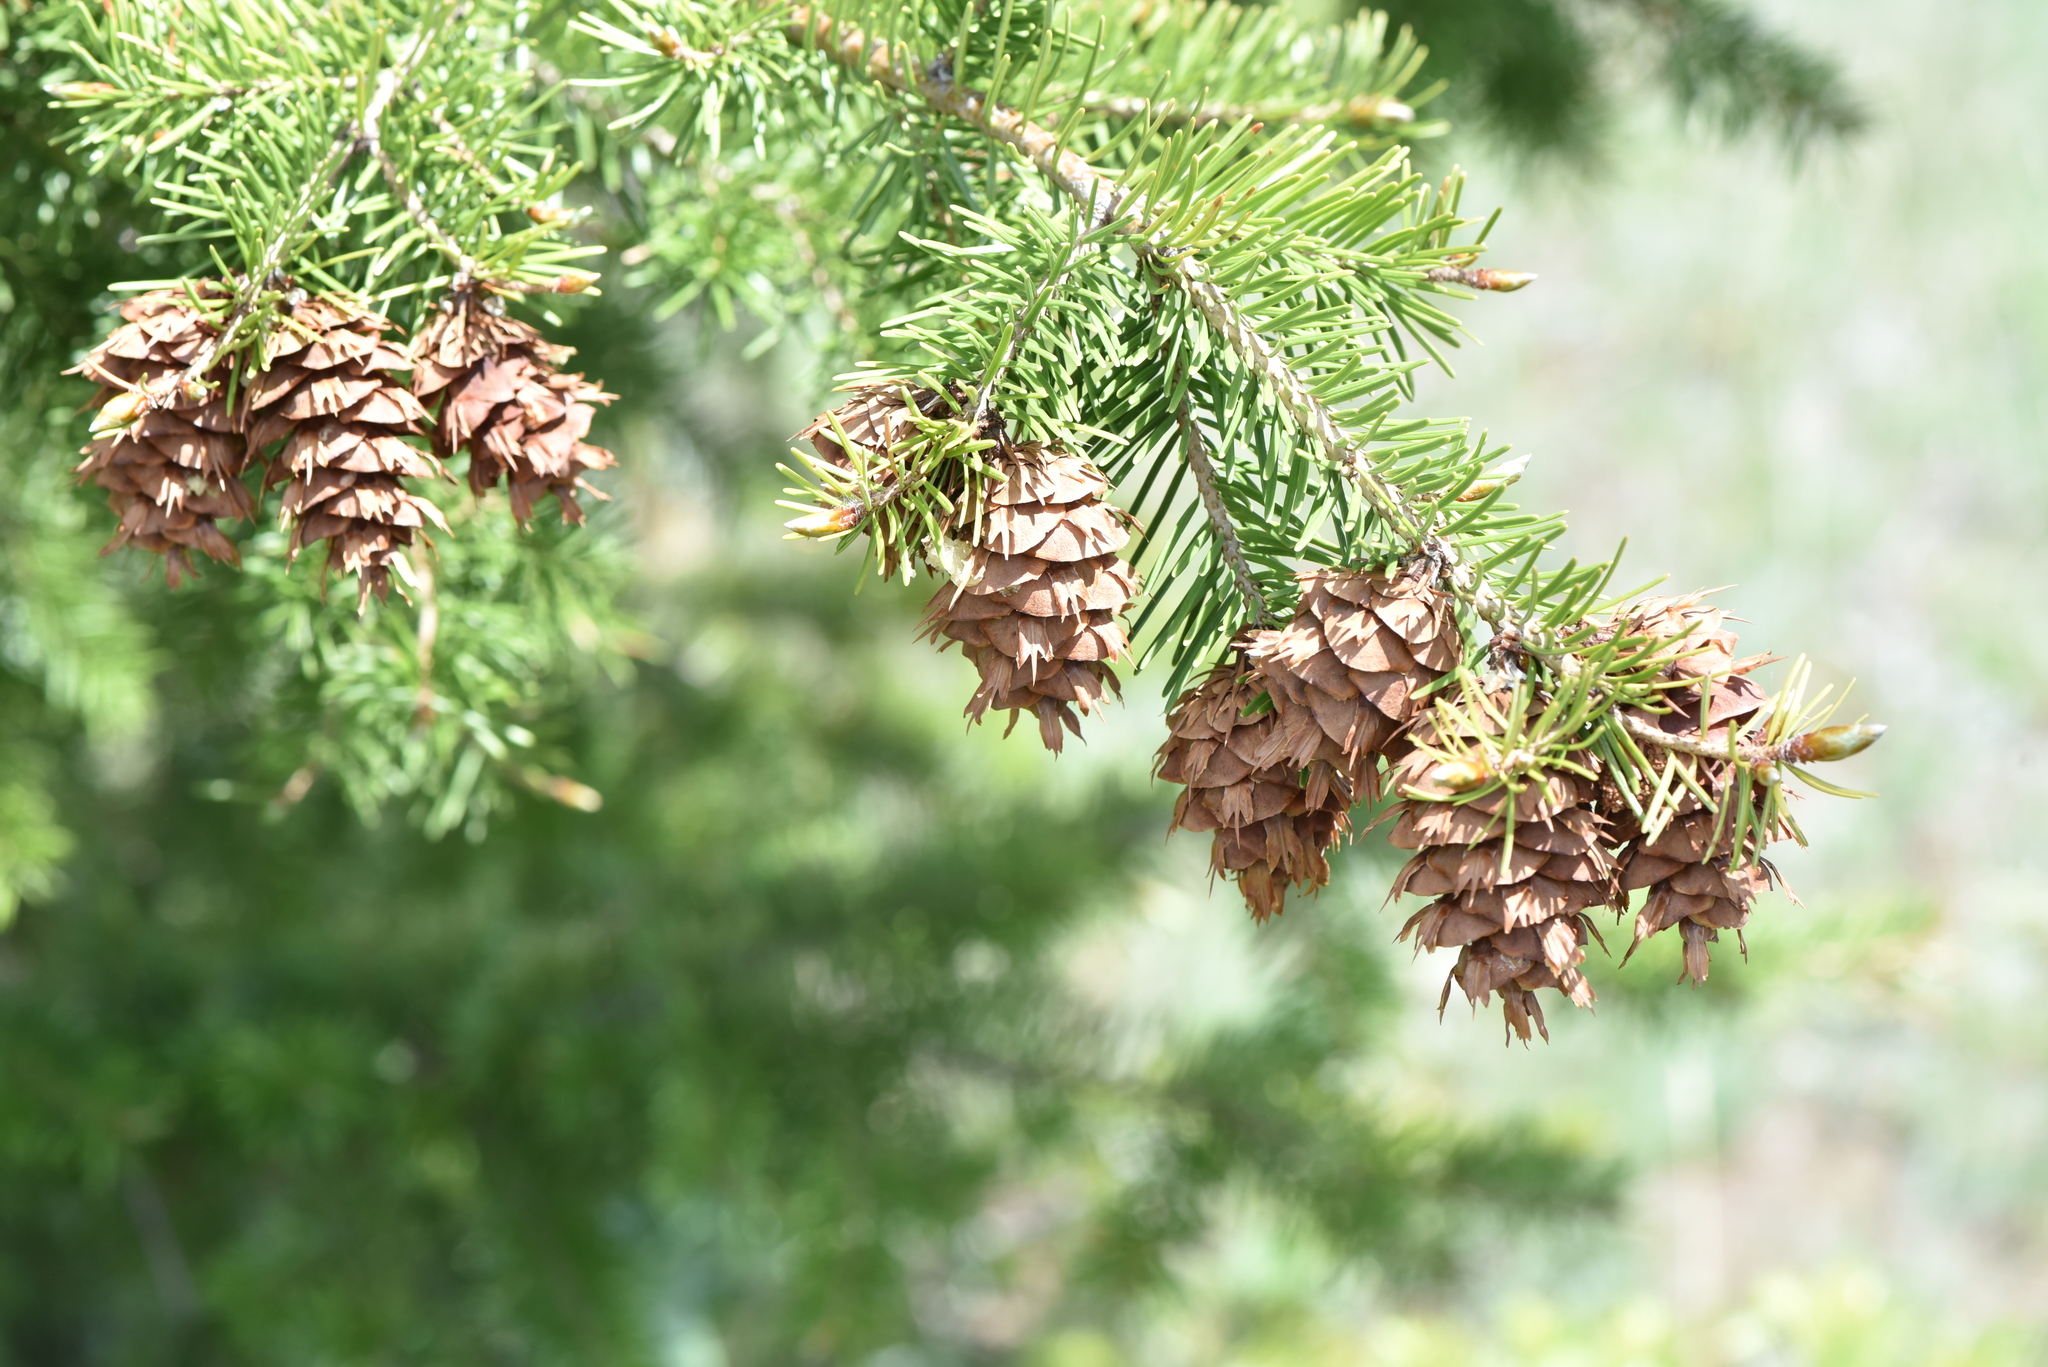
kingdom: Plantae
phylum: Tracheophyta
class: Pinopsida
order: Pinales
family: Pinaceae
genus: Pseudotsuga
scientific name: Pseudotsuga menziesii
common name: Douglas fir
